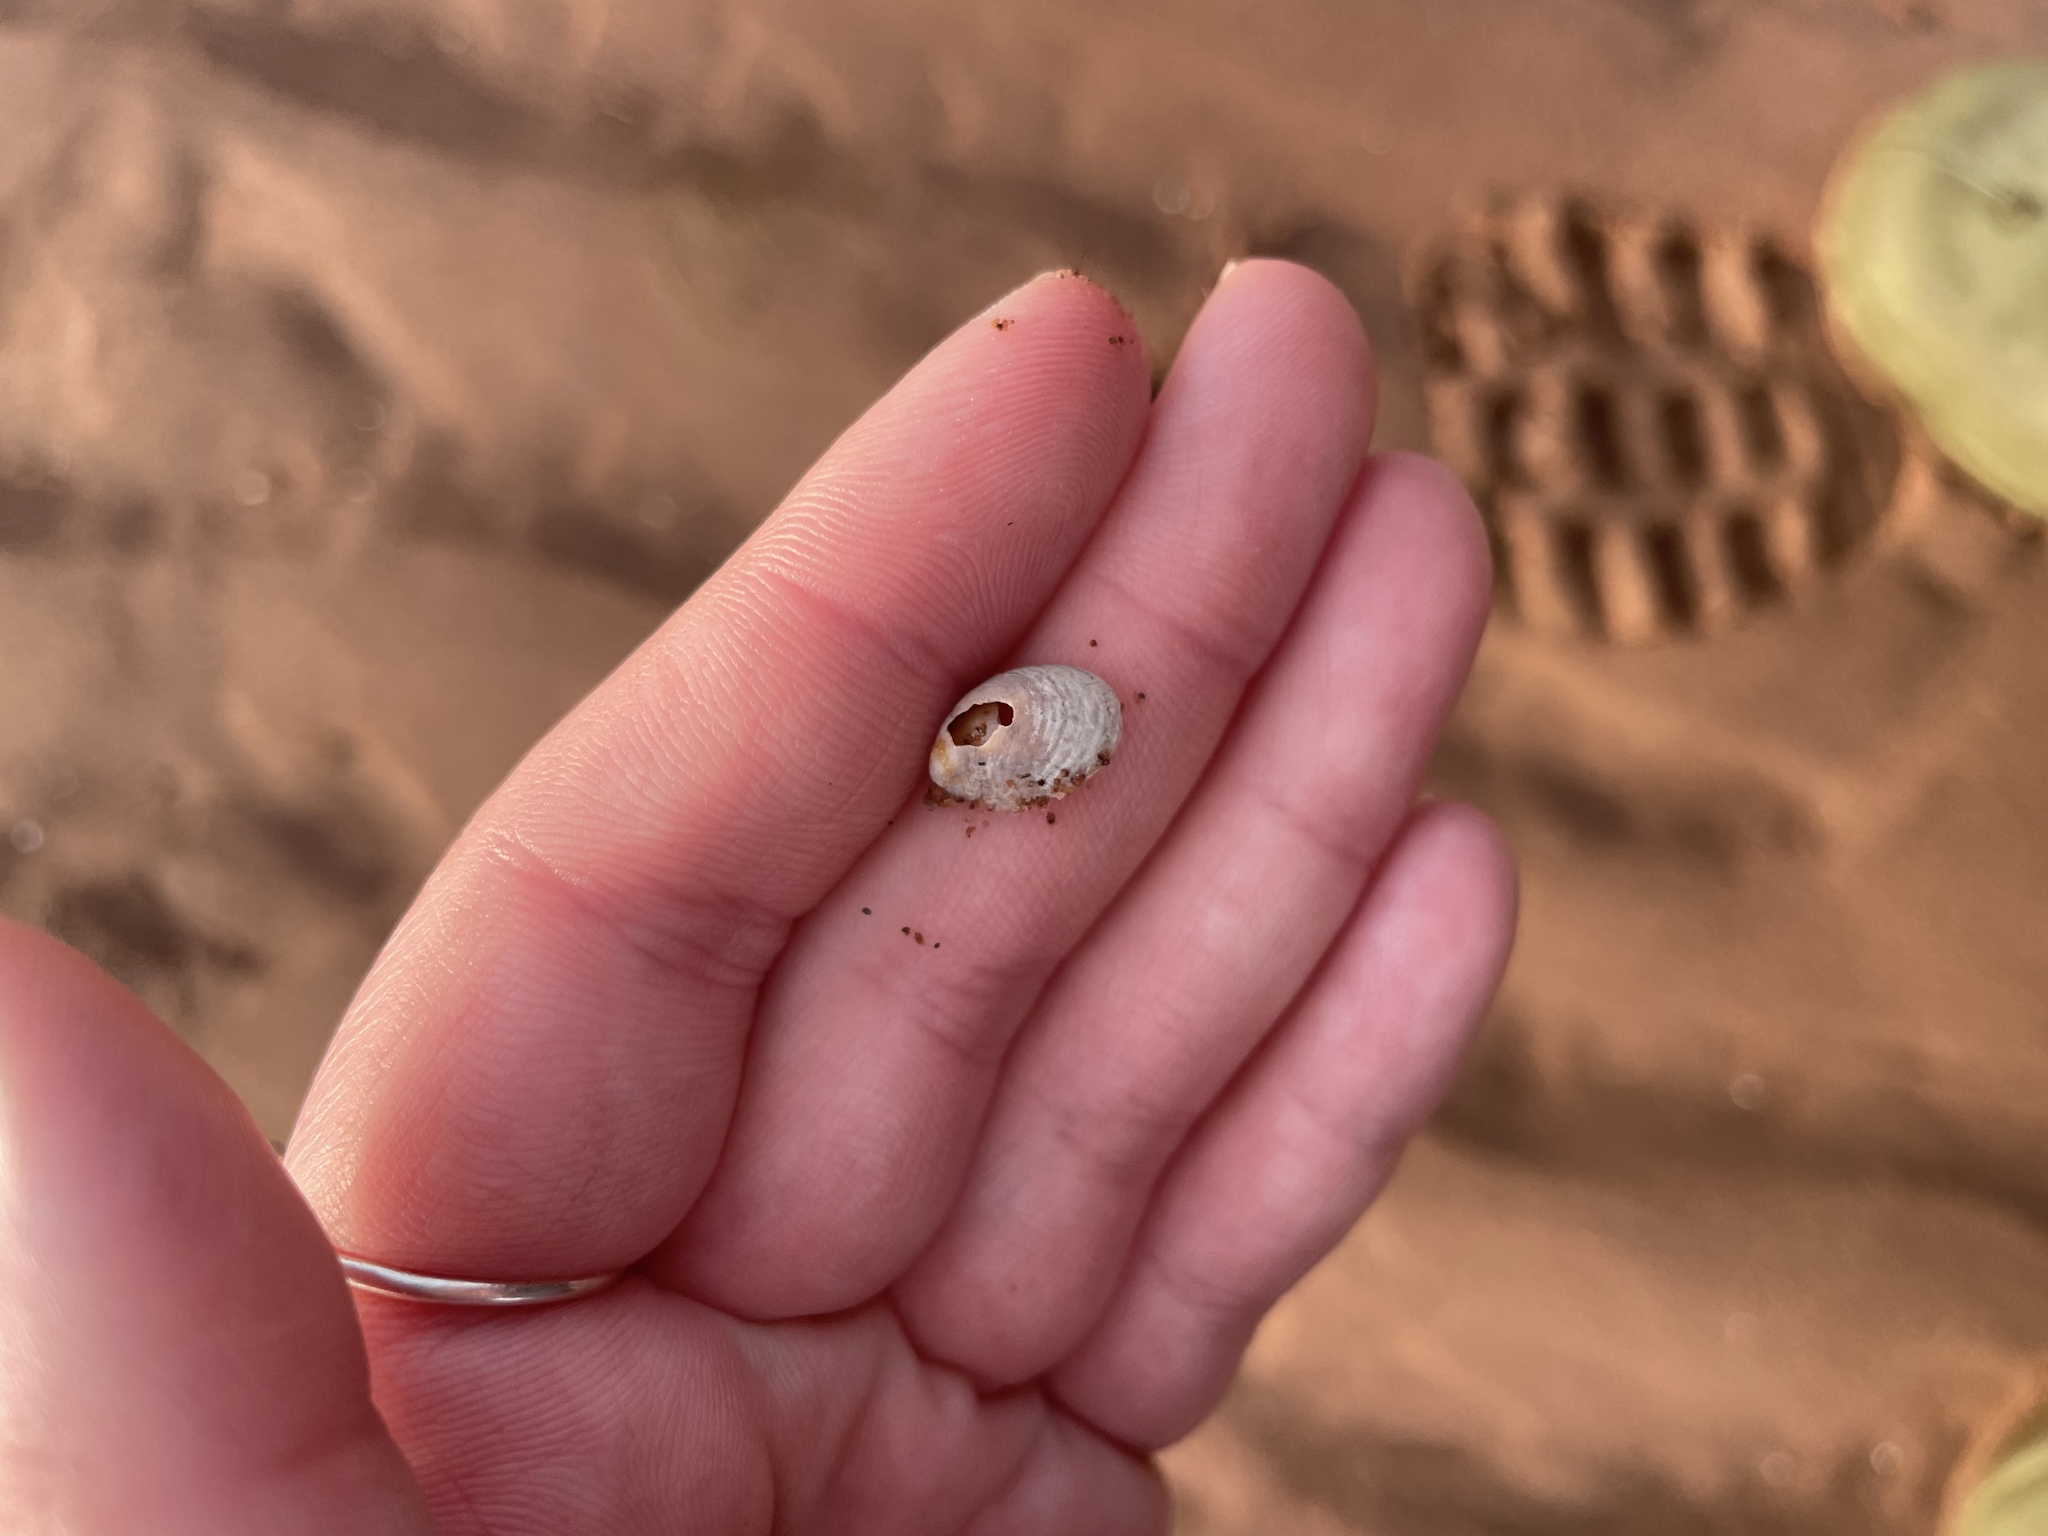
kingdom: Animalia
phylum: Mollusca
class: Gastropoda
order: Littorinimorpha
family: Calyptraeidae
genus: Crepidula
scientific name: Crepidula fornicata
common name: Slipper limpet
